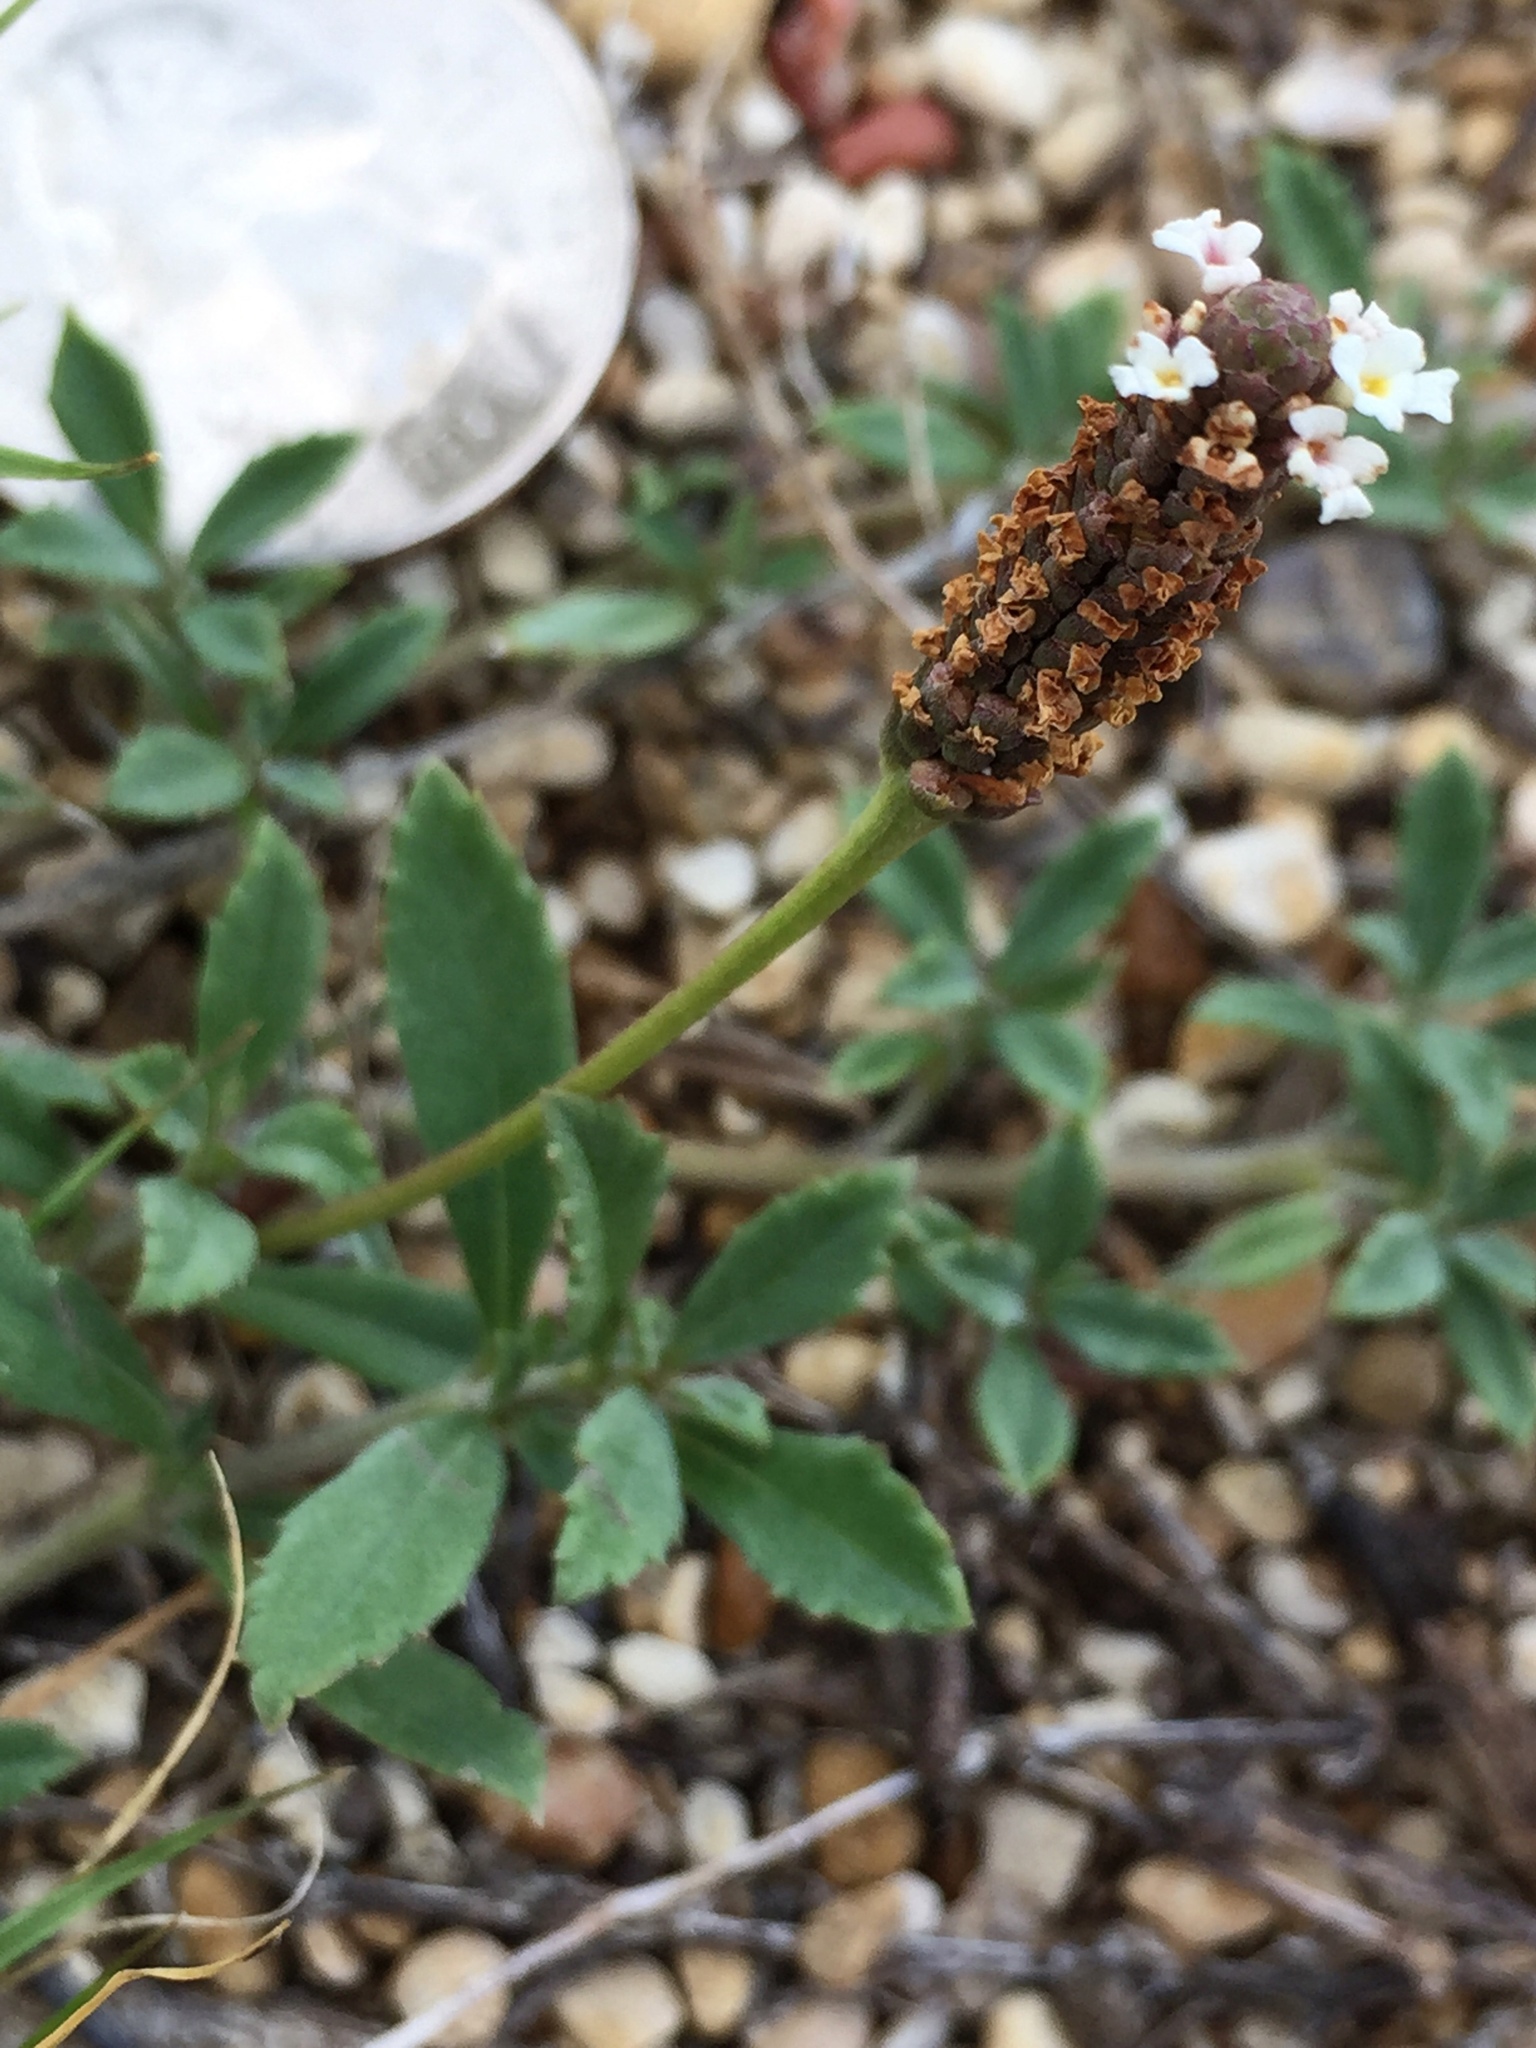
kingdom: Plantae
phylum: Tracheophyta
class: Magnoliopsida
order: Lamiales
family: Verbenaceae
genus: Phyla
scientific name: Phyla nodiflora
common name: Frogfruit
